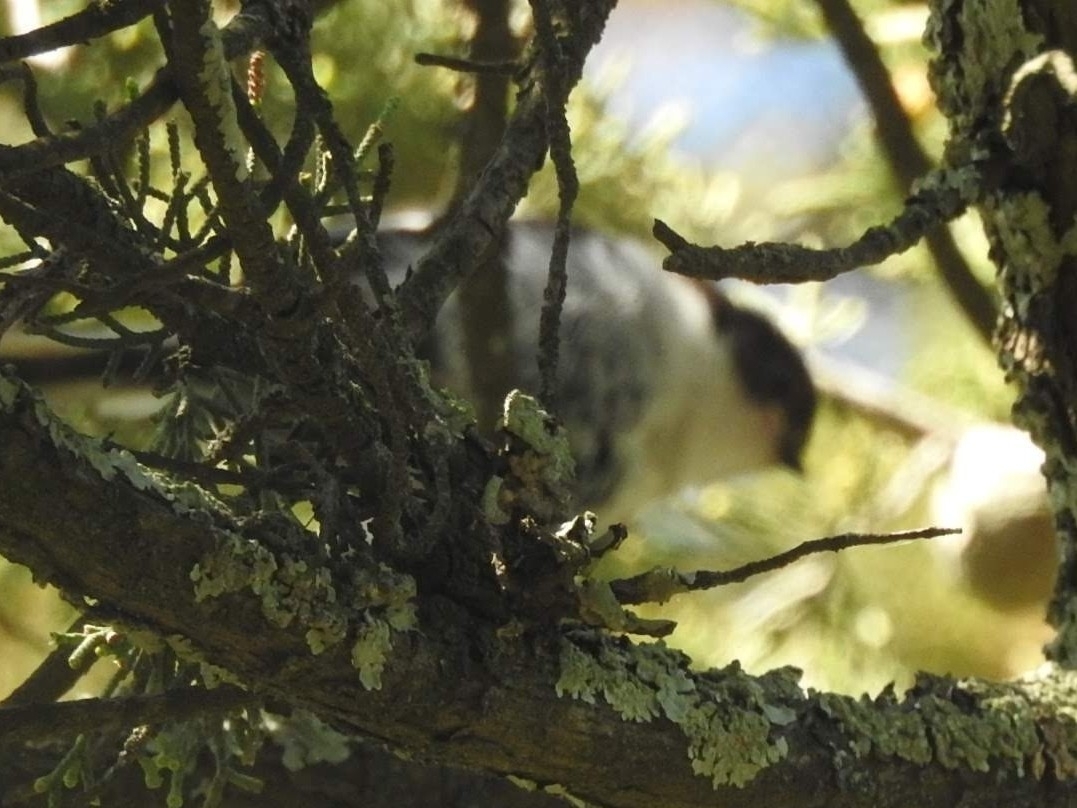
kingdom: Animalia
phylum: Chordata
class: Aves
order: Passeriformes
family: Aegithalidae
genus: Aegithalos
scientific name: Aegithalos caudatus
